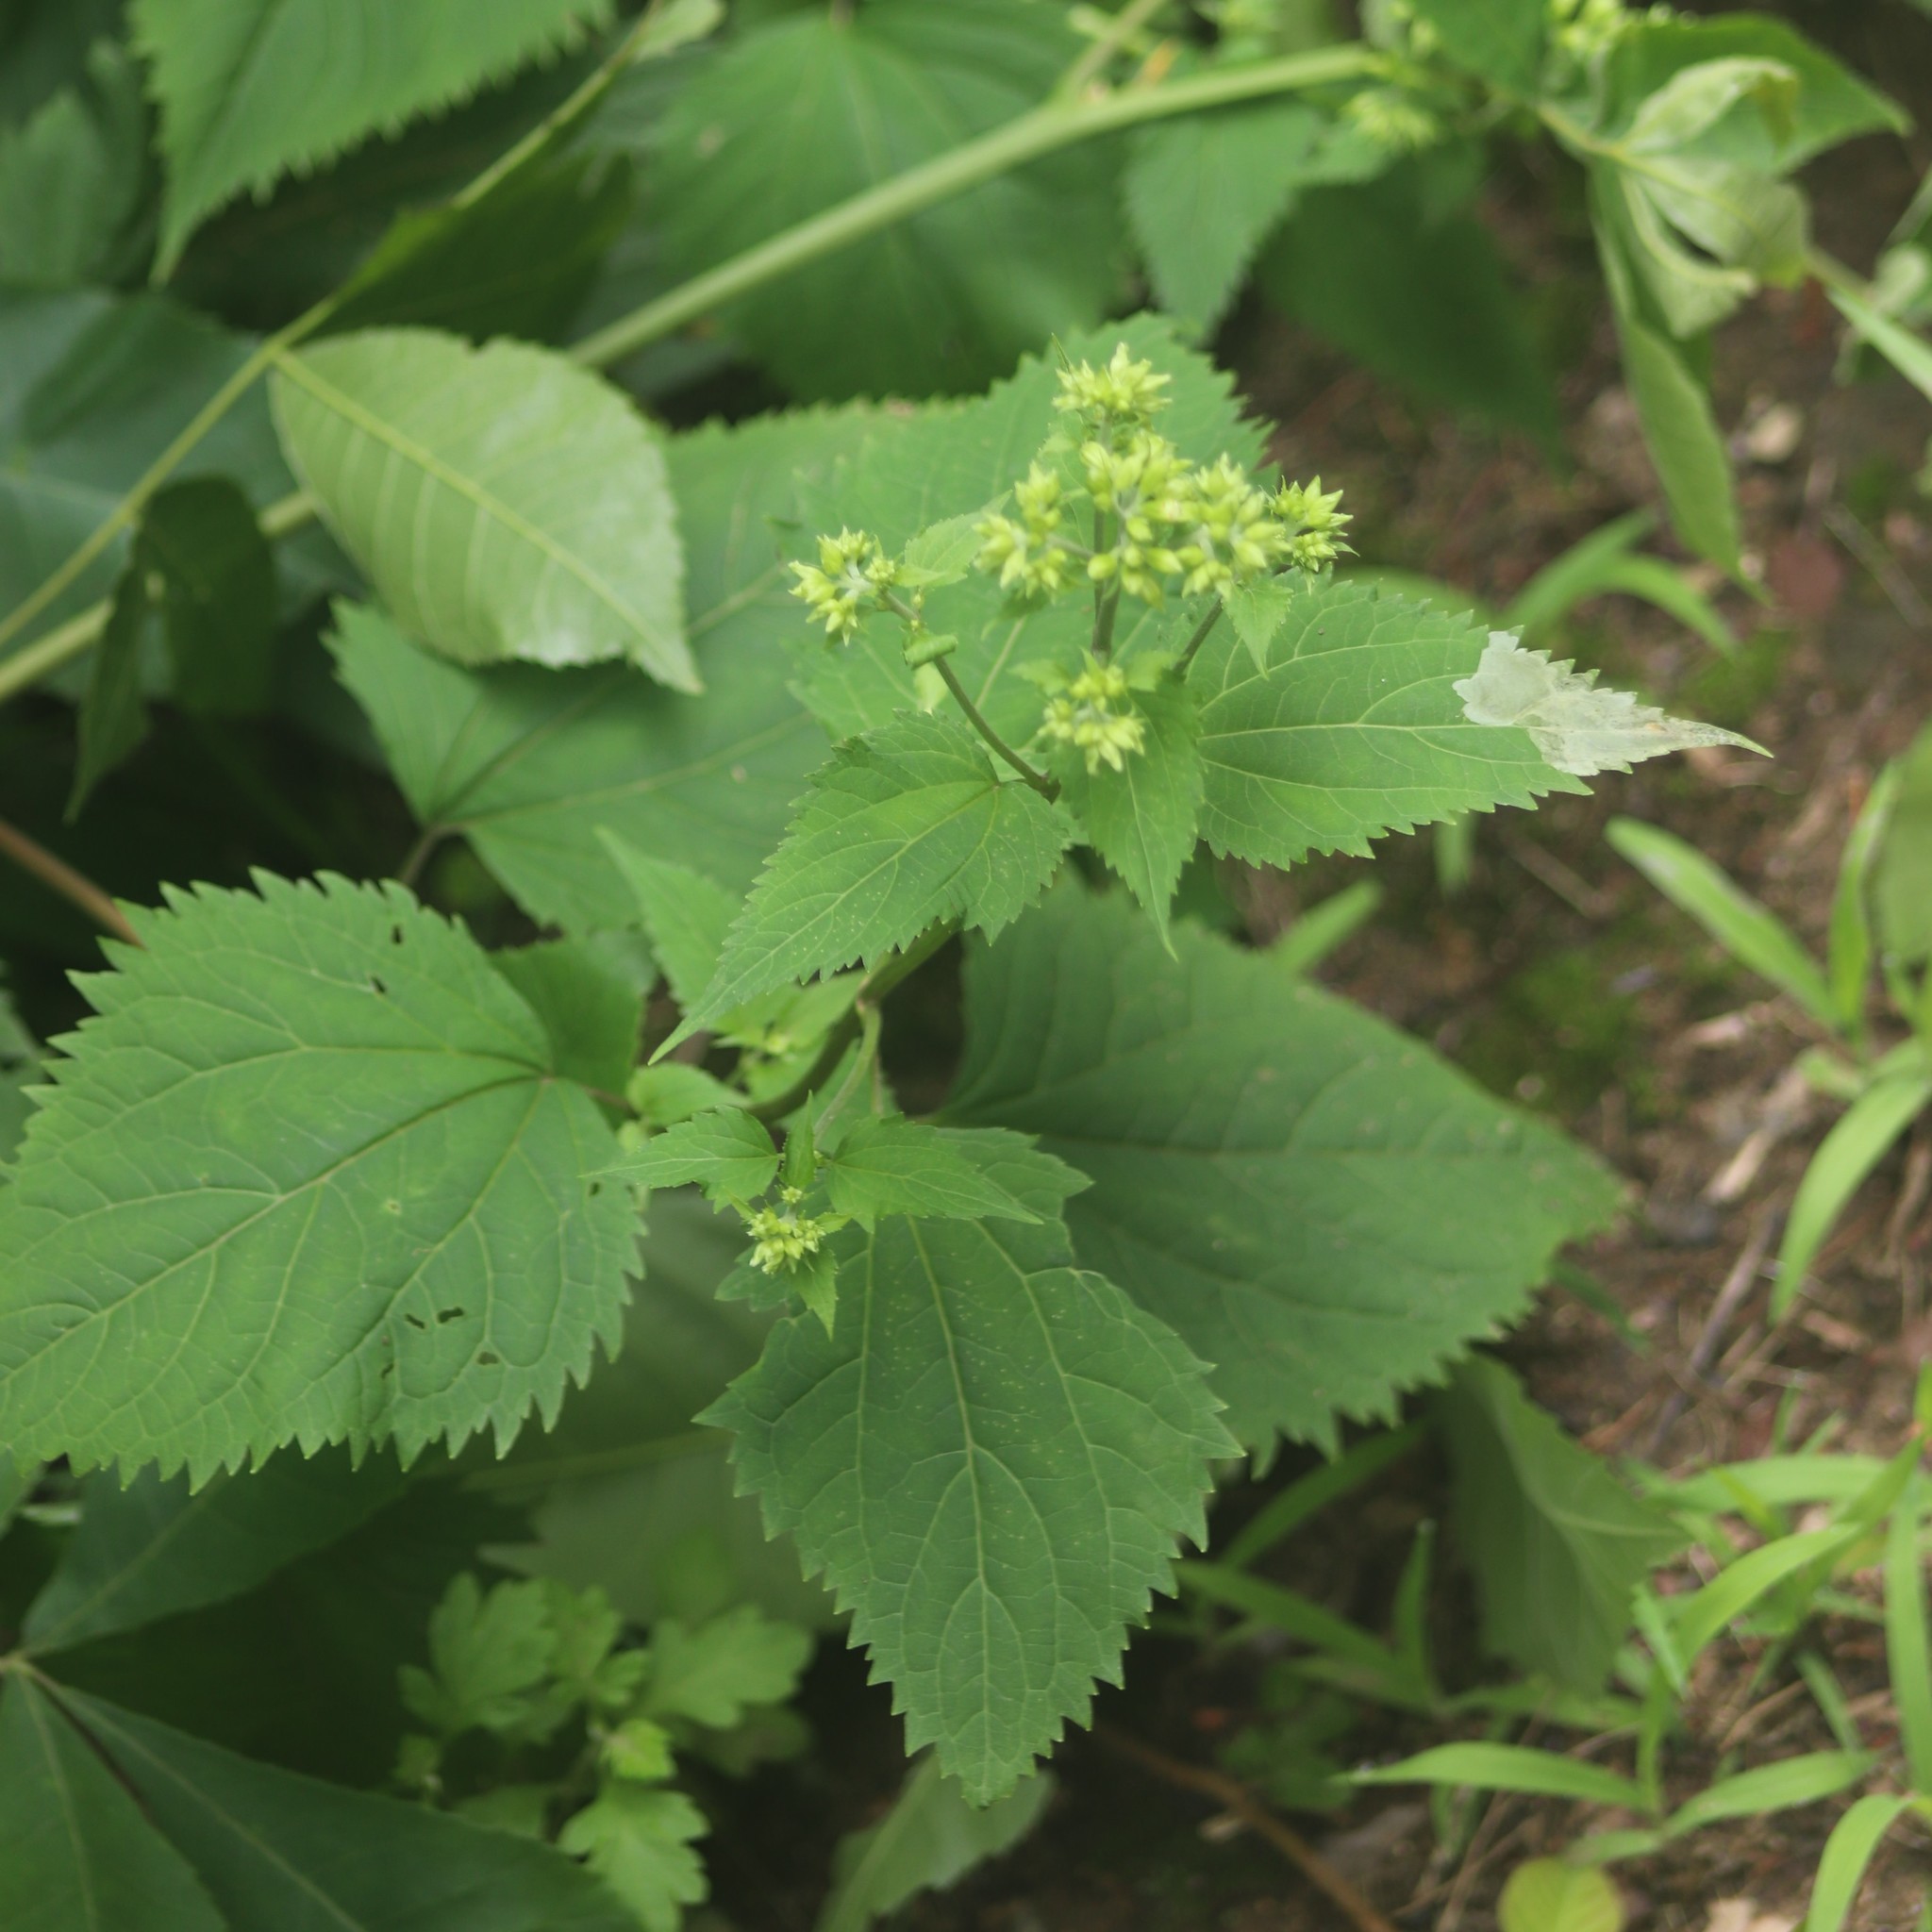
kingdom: Plantae
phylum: Tracheophyta
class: Magnoliopsida
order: Asterales
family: Asteraceae
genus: Ageratina
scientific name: Ageratina altissima
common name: White snakeroot
